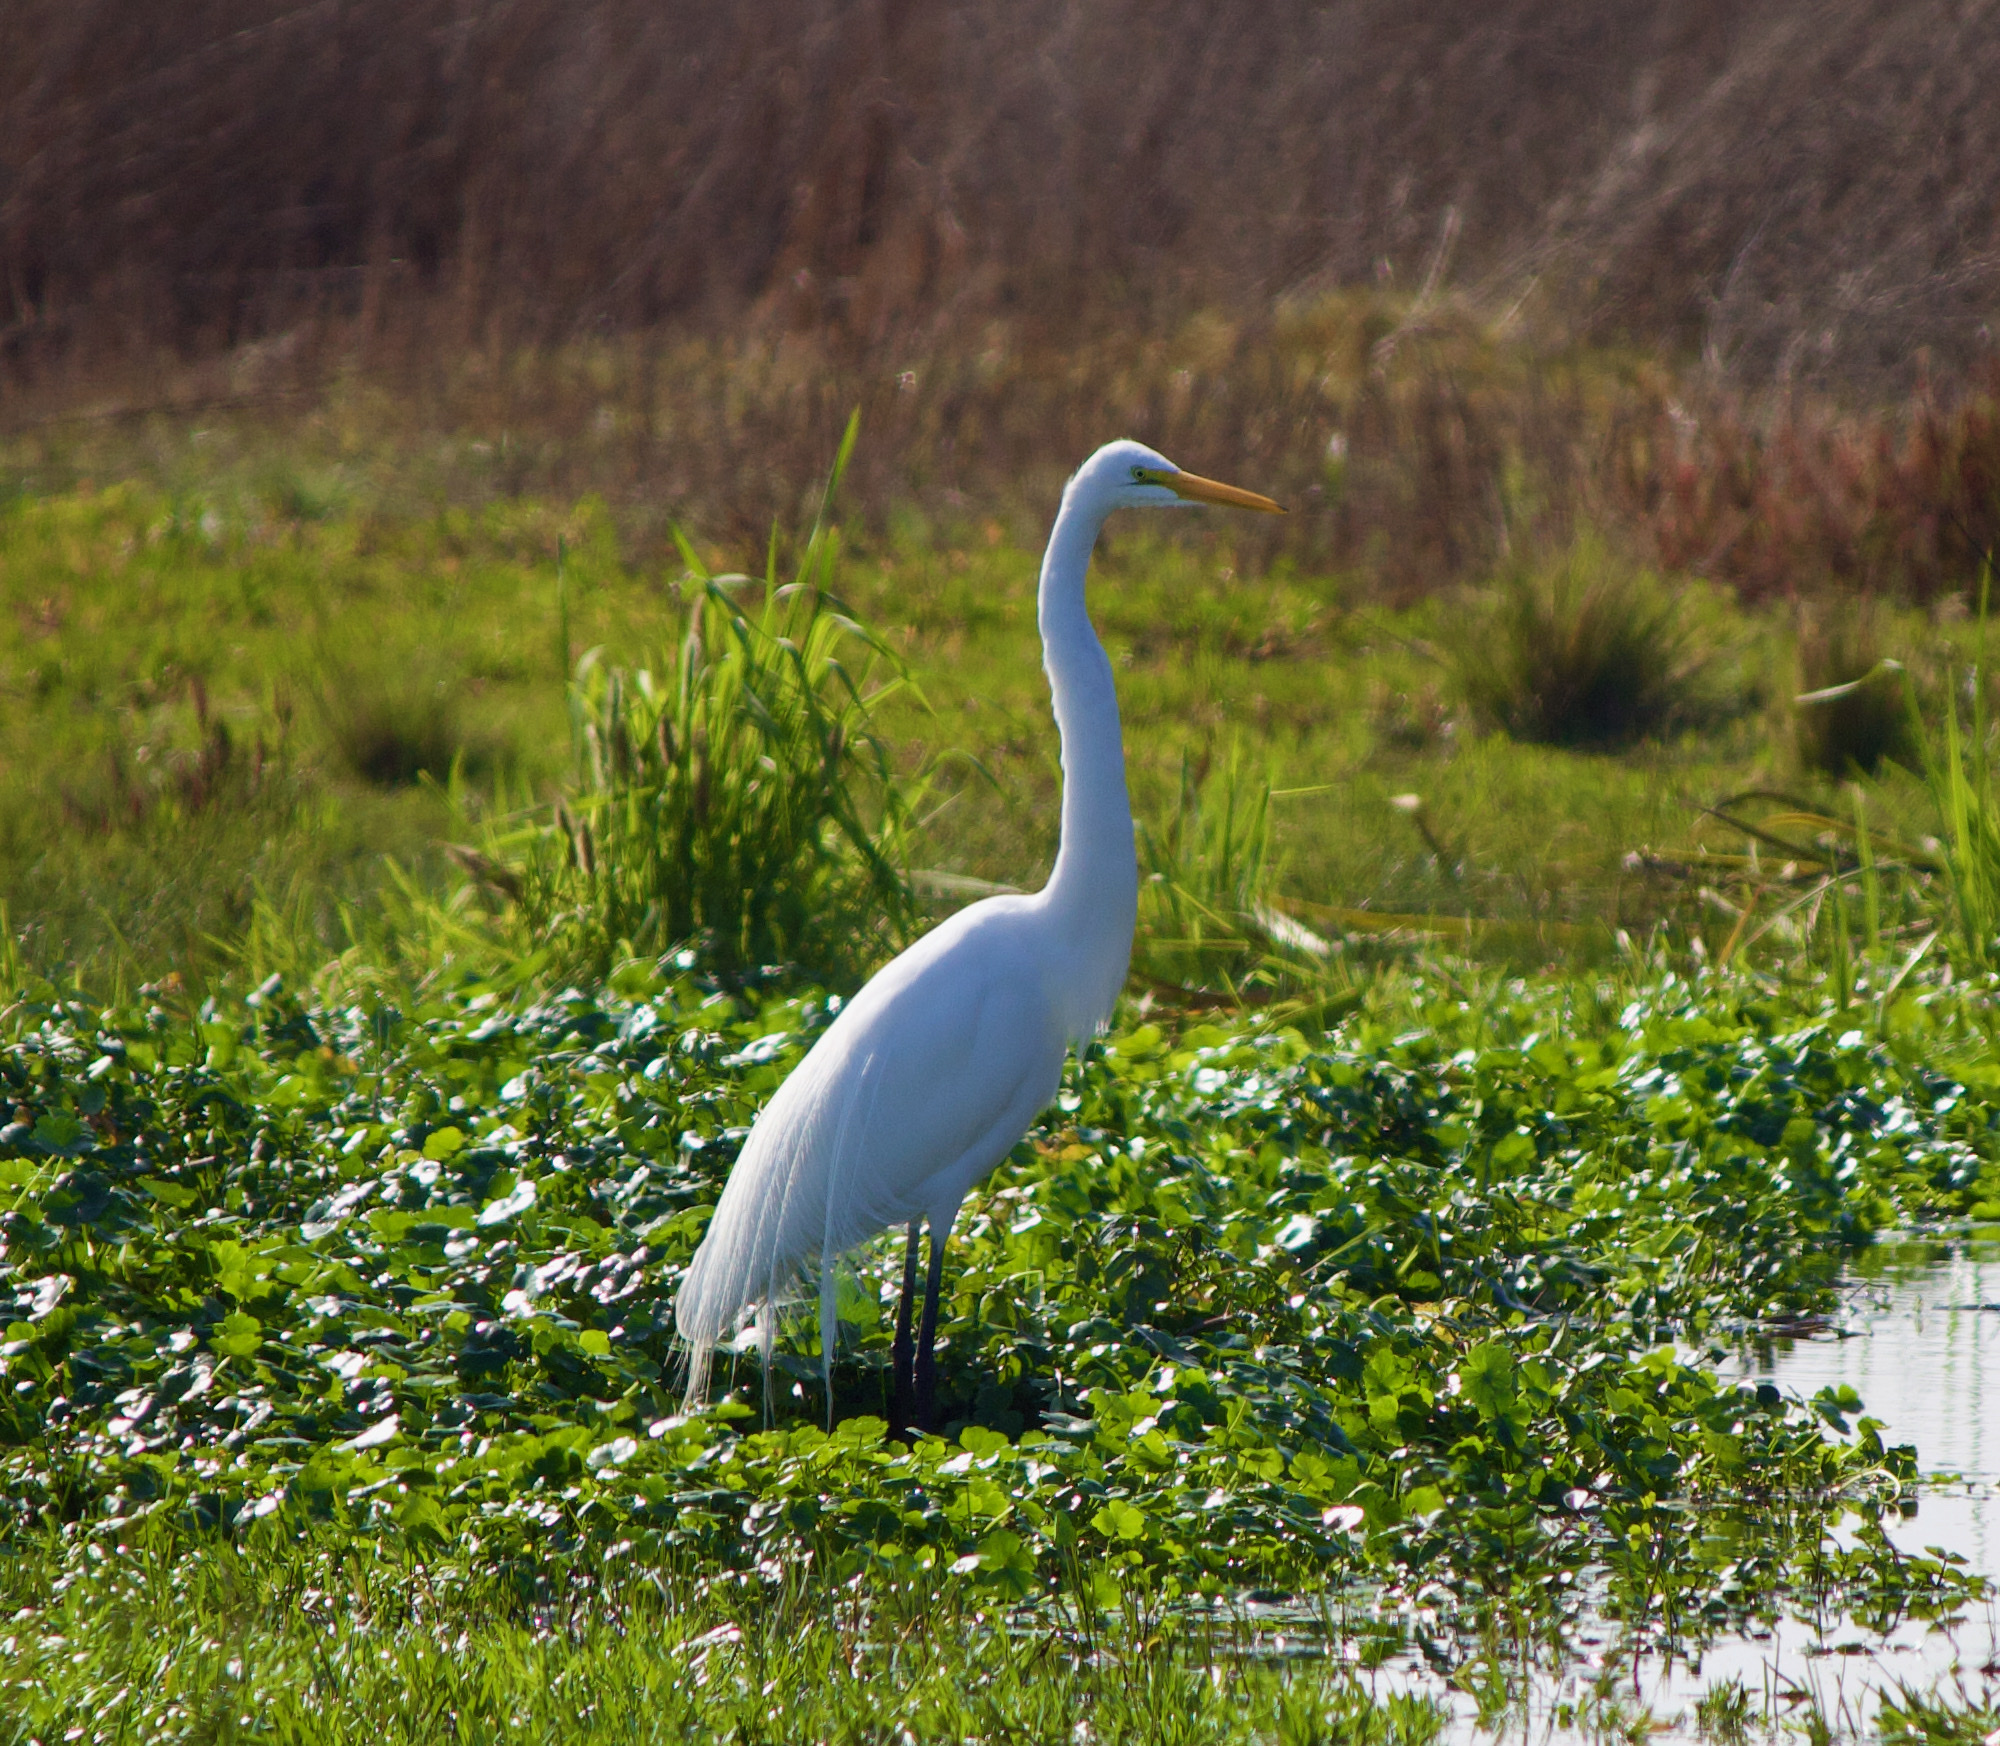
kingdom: Animalia
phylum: Chordata
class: Aves
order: Pelecaniformes
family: Ardeidae
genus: Ardea
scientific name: Ardea alba
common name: Great egret
